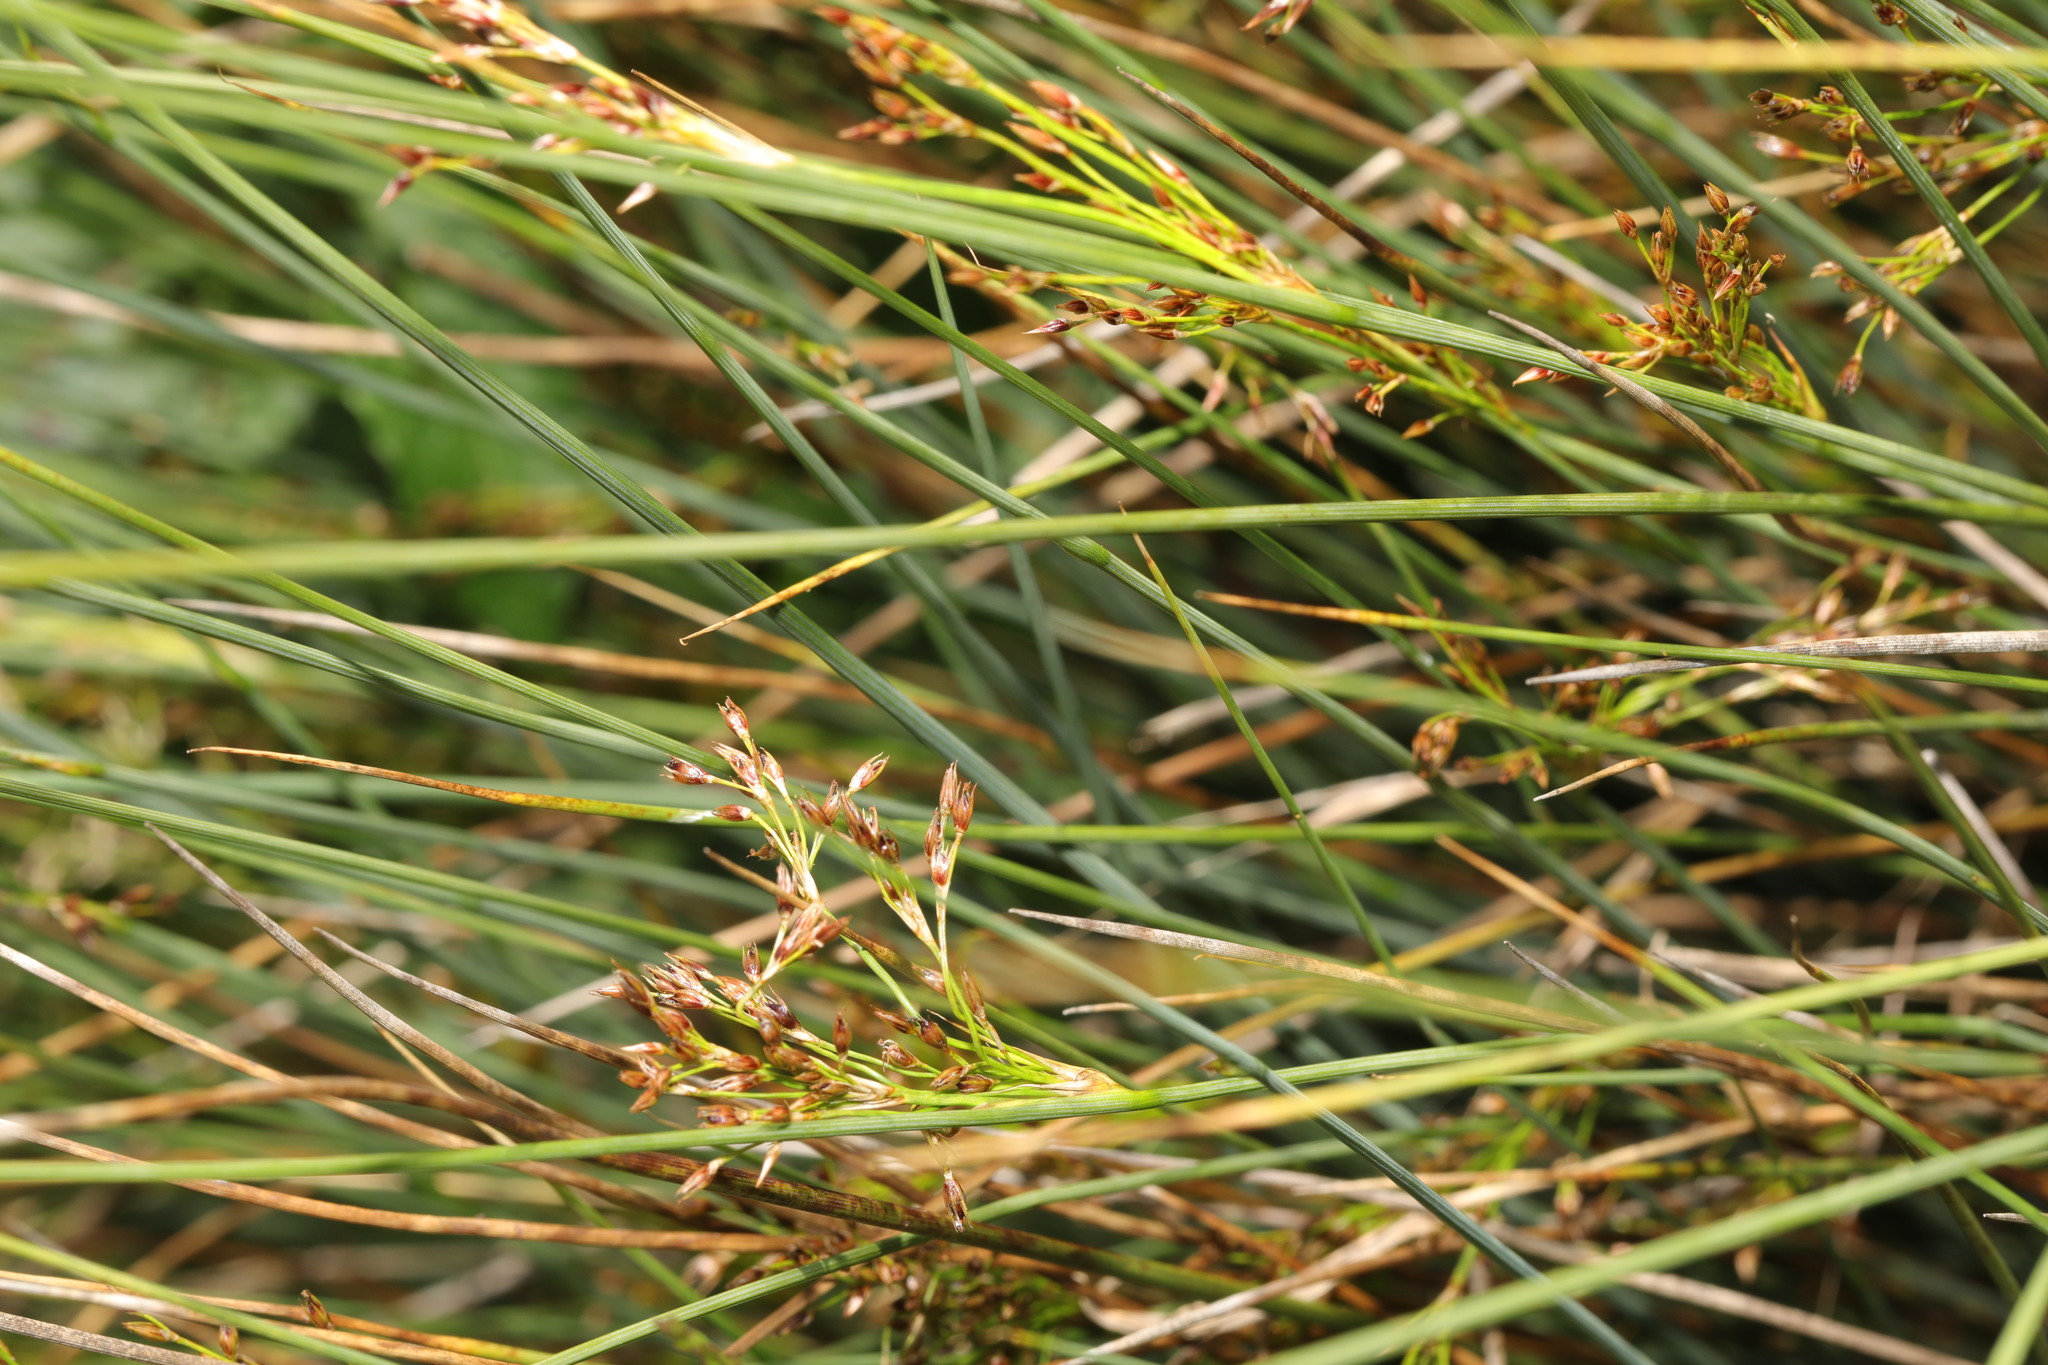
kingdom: Plantae
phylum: Tracheophyta
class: Liliopsida
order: Poales
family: Juncaceae
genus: Juncus
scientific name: Juncus inflexus
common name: Hard rush
